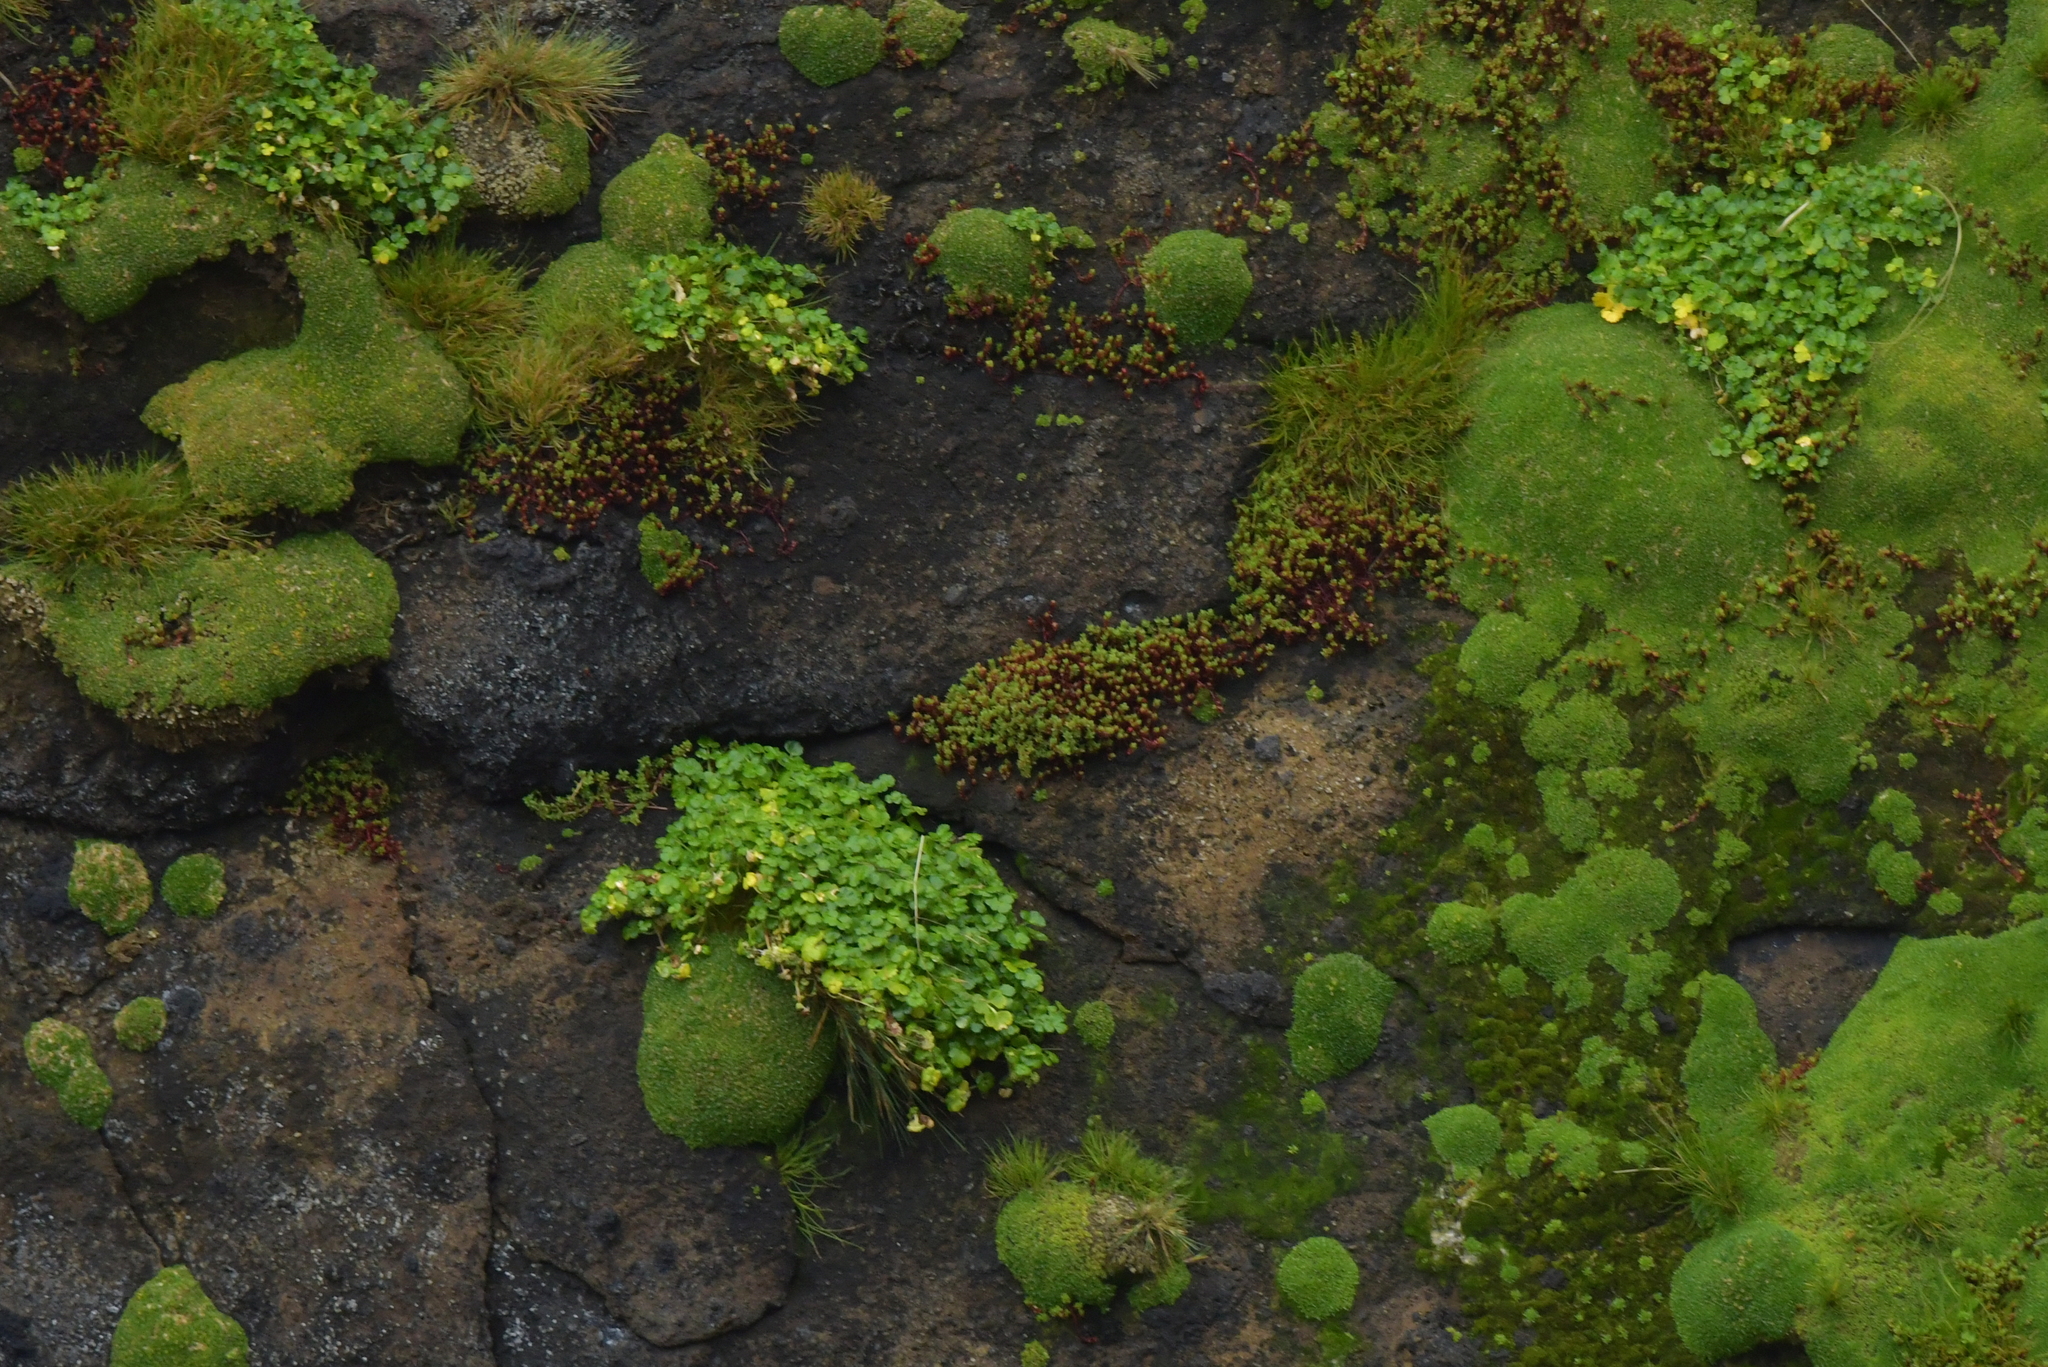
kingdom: Plantae
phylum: Tracheophyta
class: Magnoliopsida
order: Apiales
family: Apiaceae
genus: Apium
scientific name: Apium prostratum
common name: Prostrate marshwort
